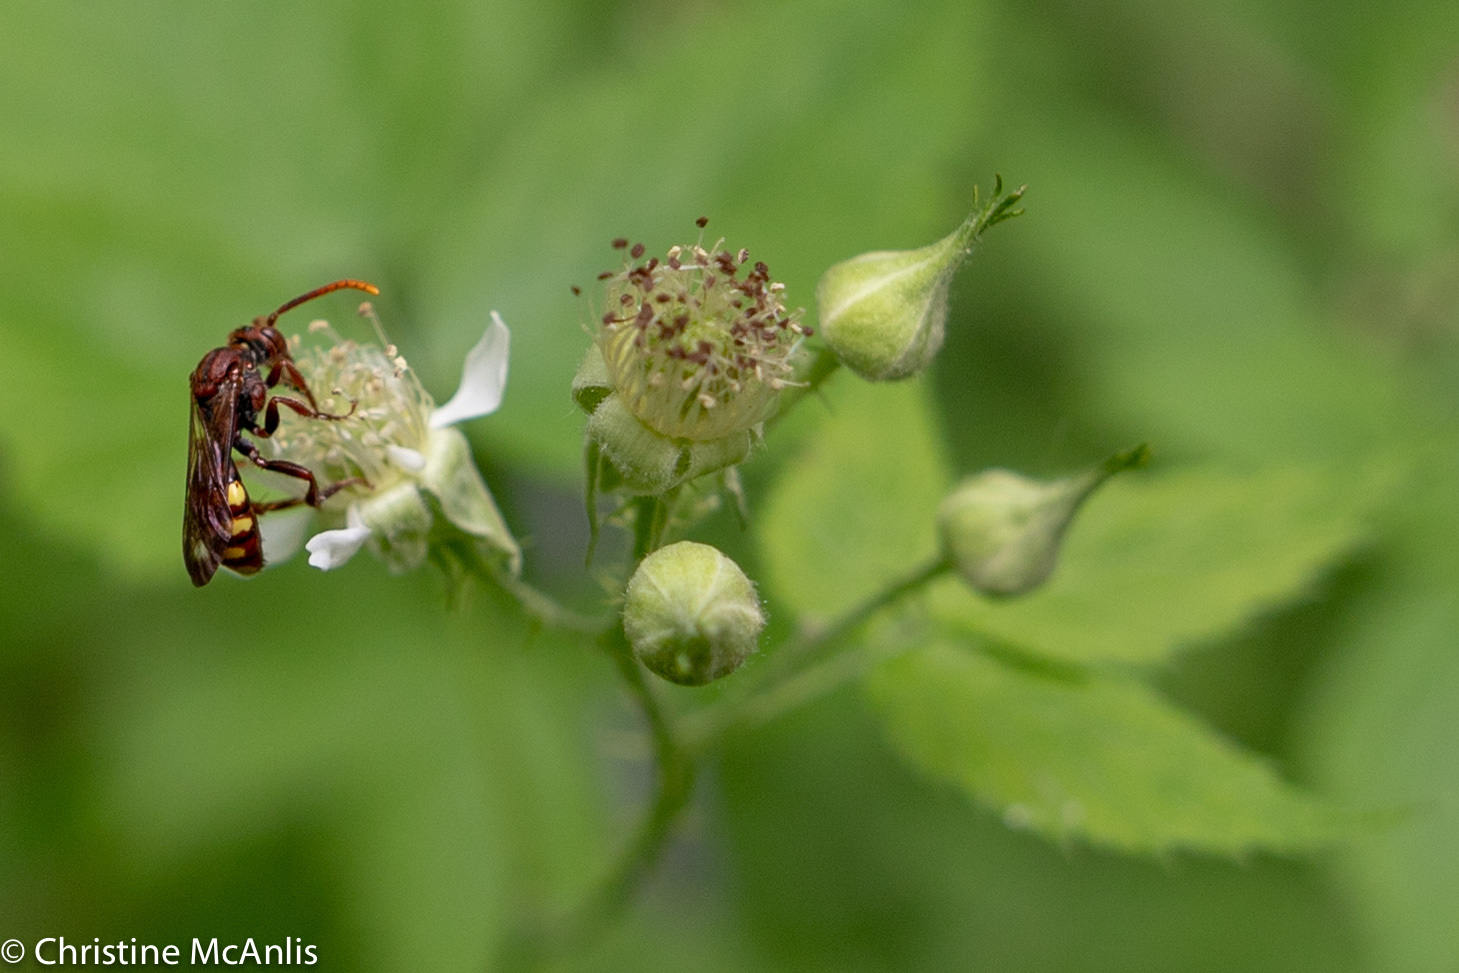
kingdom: Animalia
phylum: Arthropoda
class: Insecta
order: Hymenoptera
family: Apidae
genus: Nomada
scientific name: Nomada xanthura
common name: Yellow-striped cuckoo nomad bee
